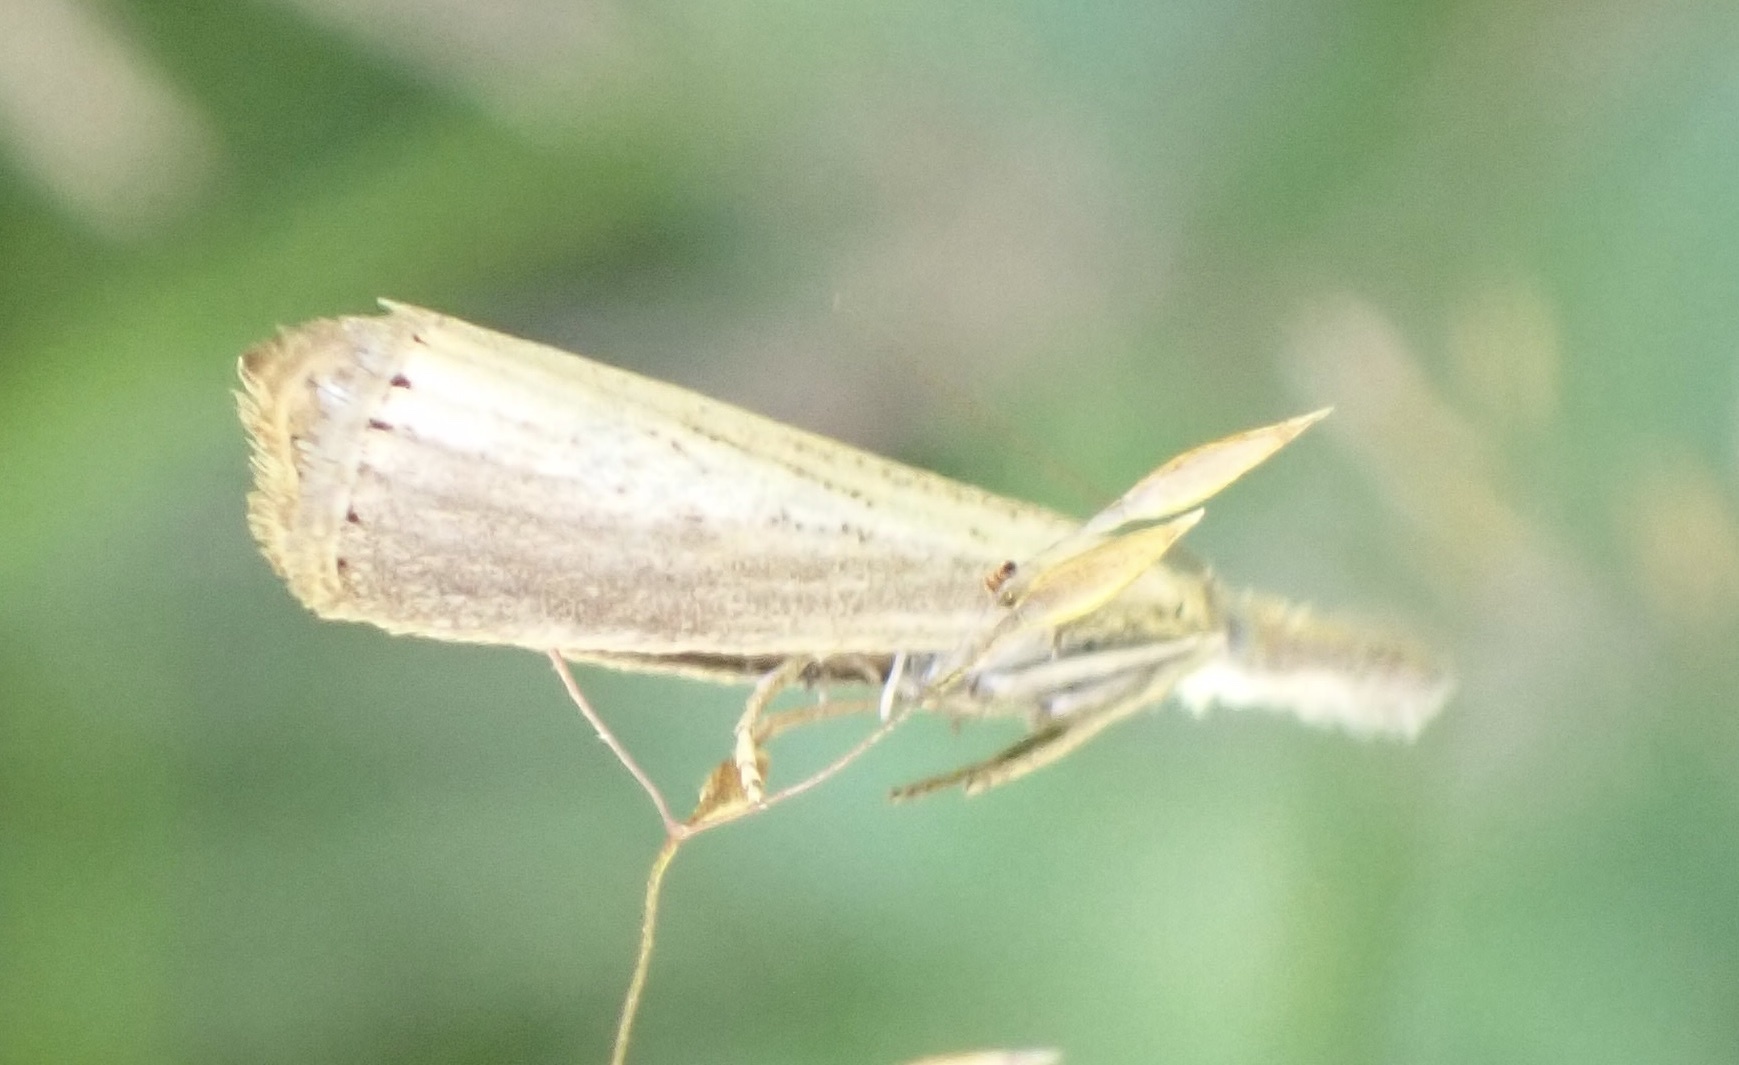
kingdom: Animalia
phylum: Arthropoda
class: Insecta
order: Lepidoptera
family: Crambidae
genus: Agriphila
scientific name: Agriphila straminella
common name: Straw grass-veneer
